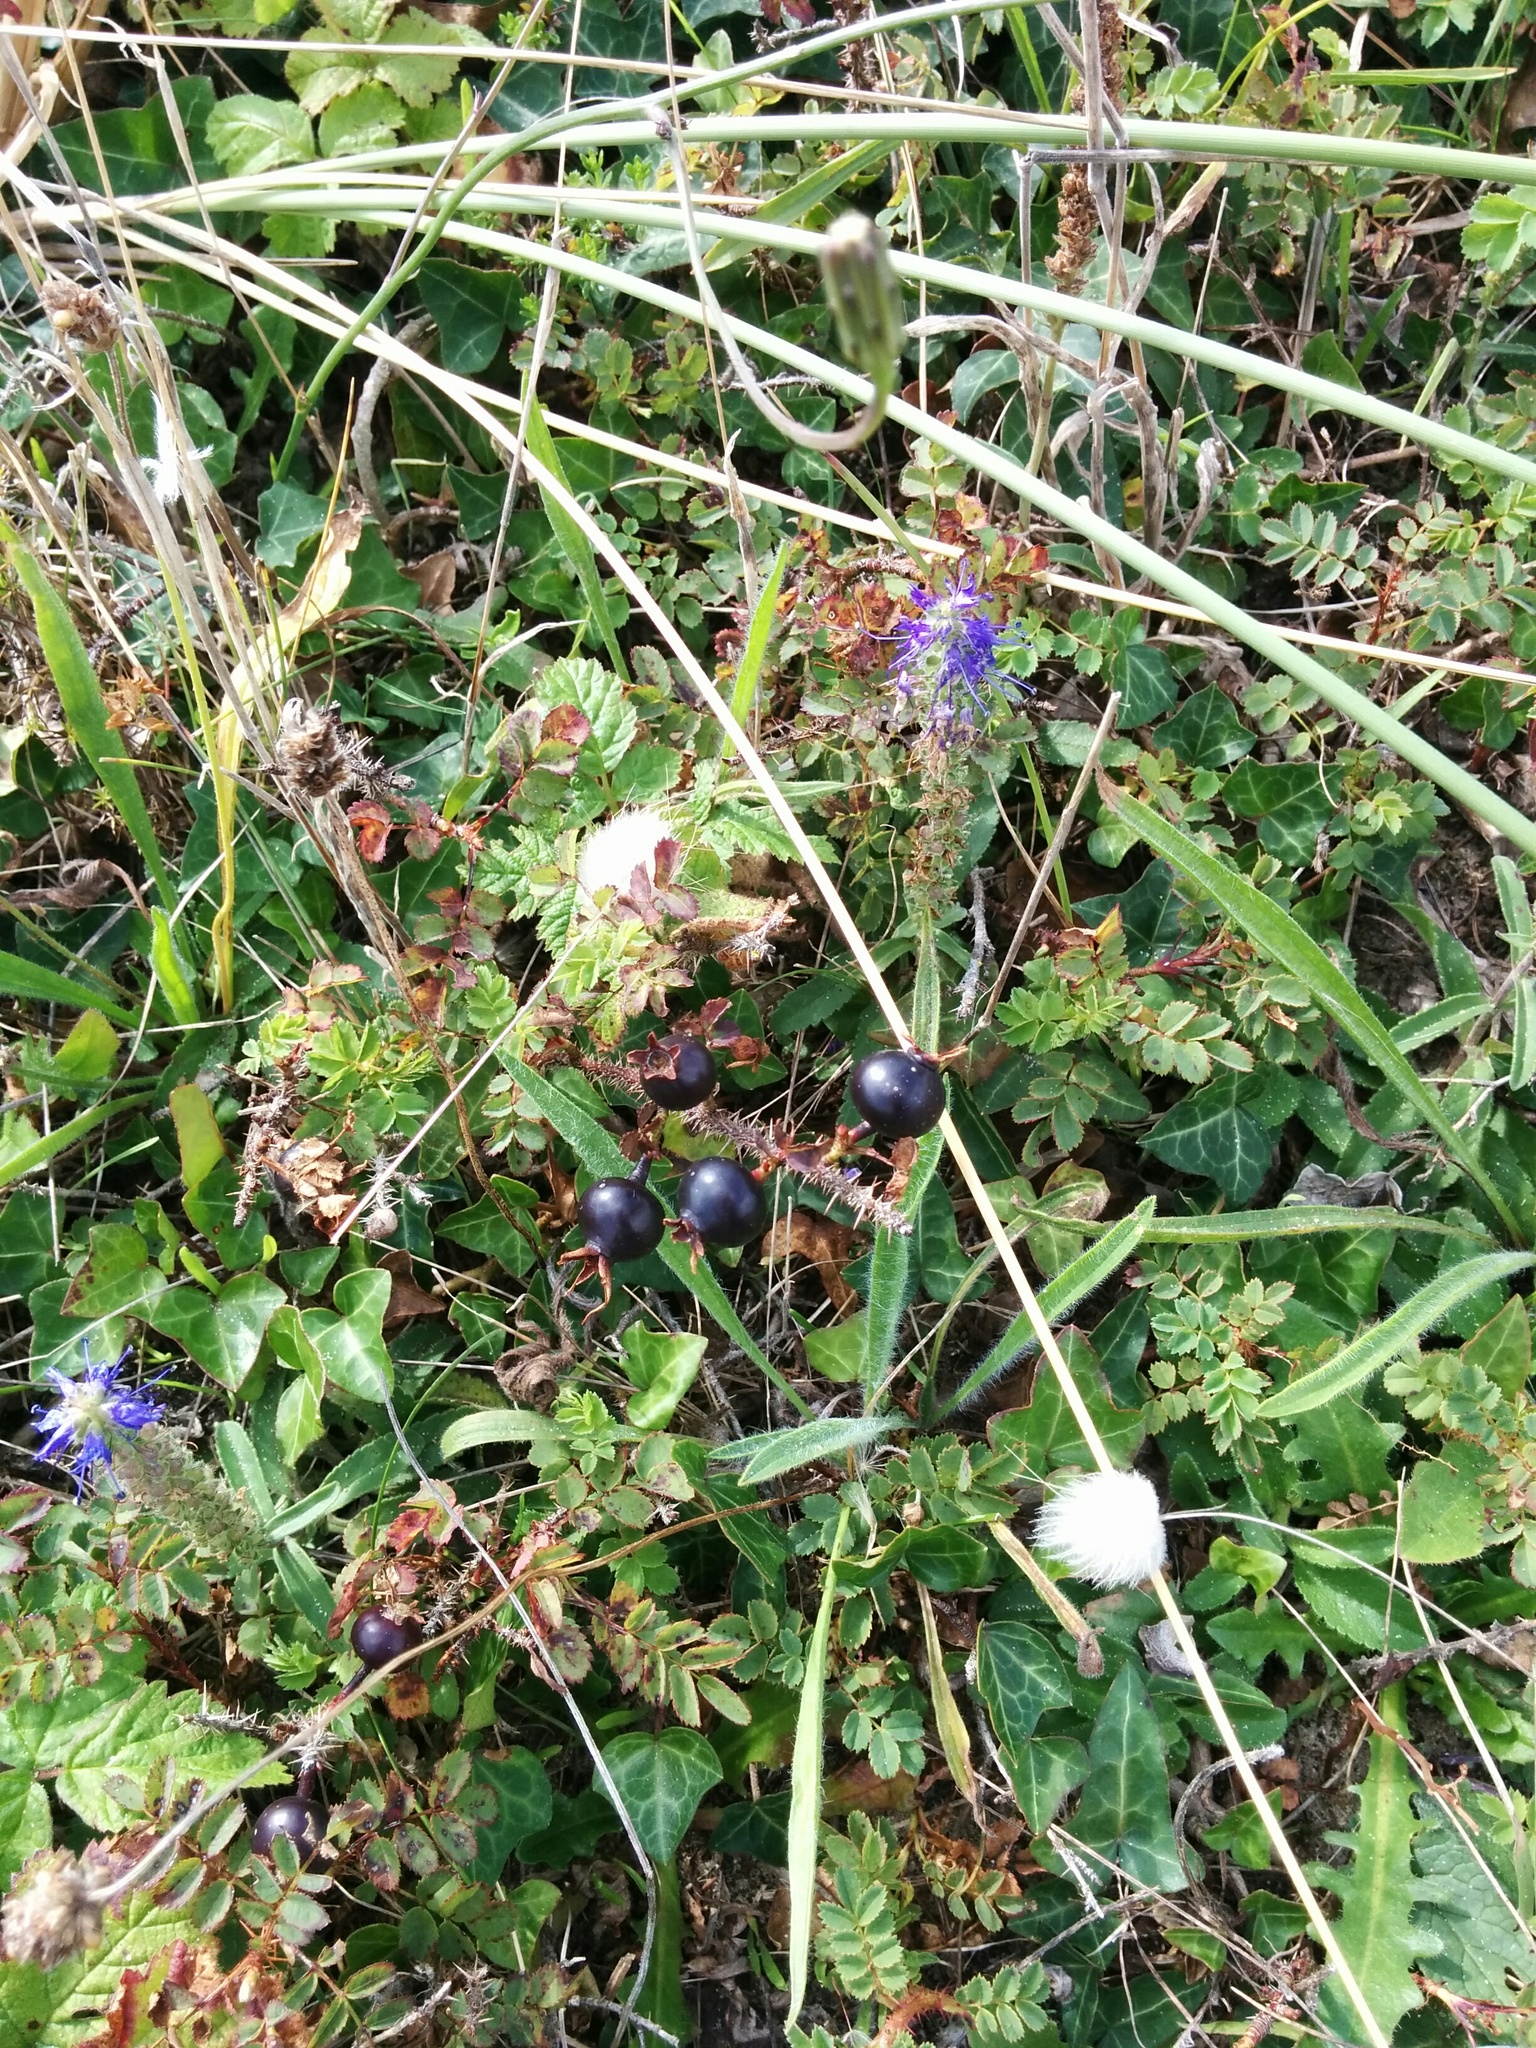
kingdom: Plantae
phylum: Tracheophyta
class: Magnoliopsida
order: Rosales
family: Rosaceae
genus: Rosa
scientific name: Rosa spinosissima
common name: Burnet rose
